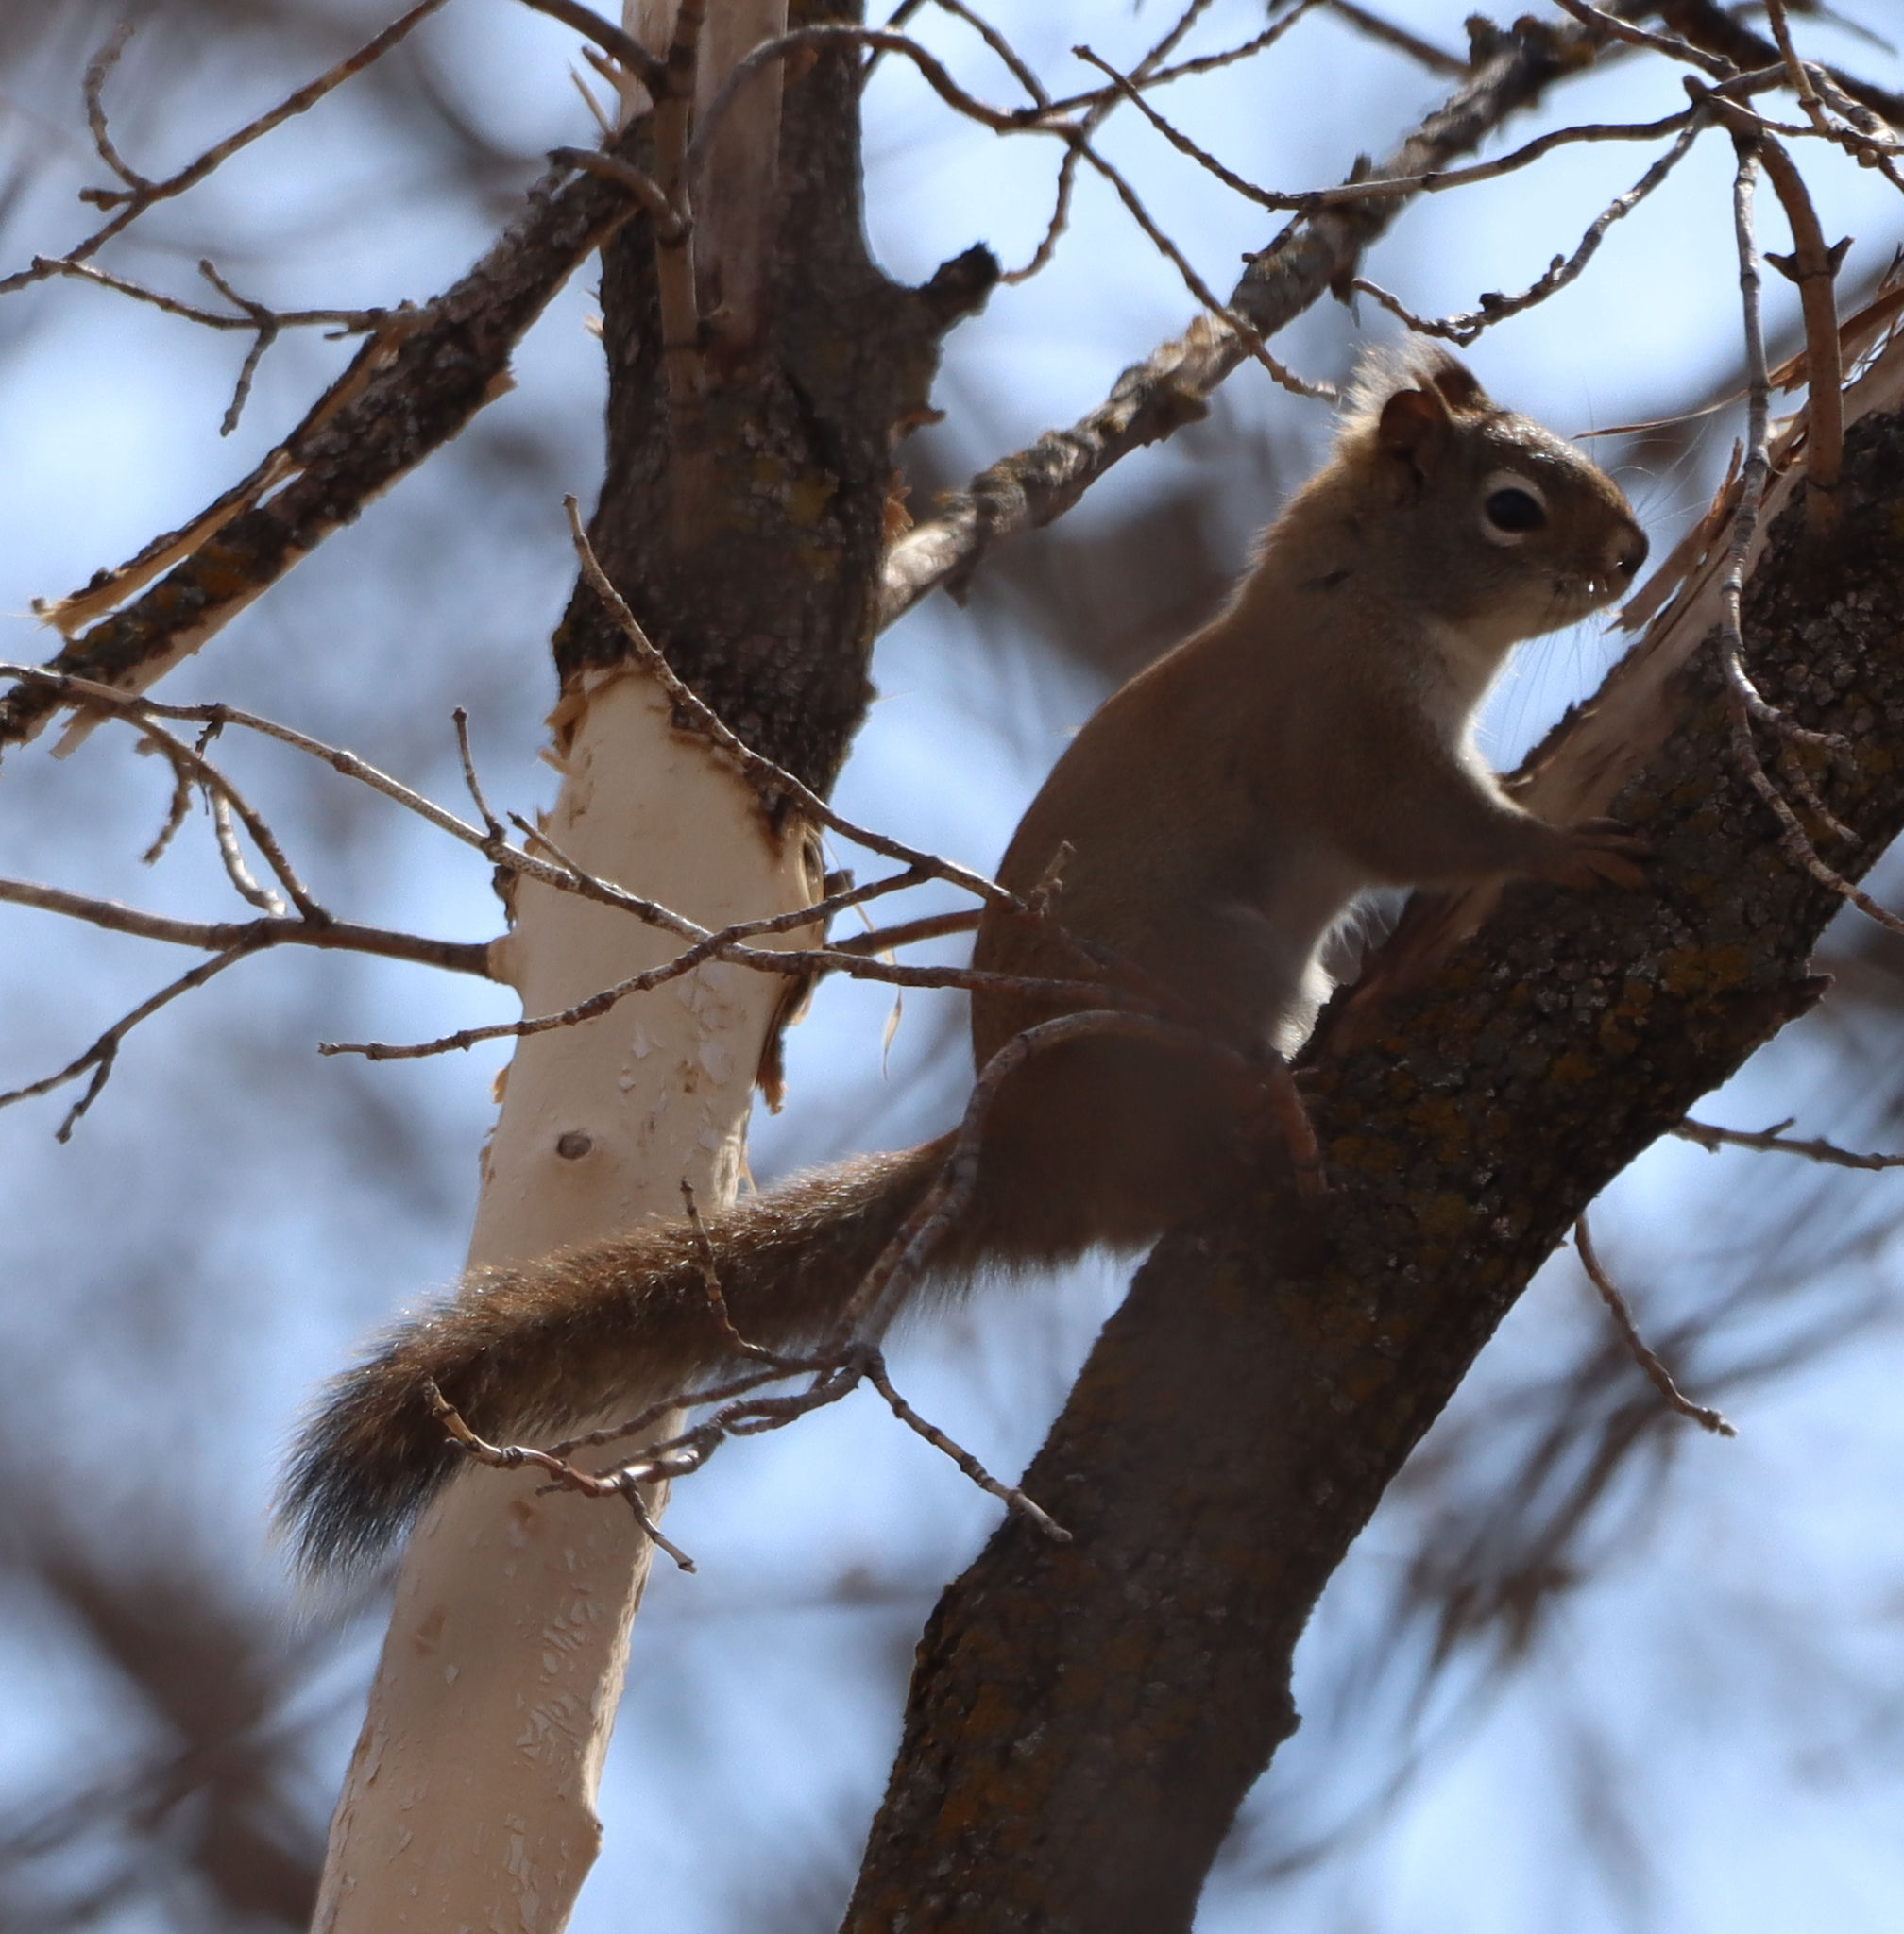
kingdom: Animalia
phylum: Chordata
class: Mammalia
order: Rodentia
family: Sciuridae
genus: Tamiasciurus
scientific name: Tamiasciurus hudsonicus
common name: Red squirrel
